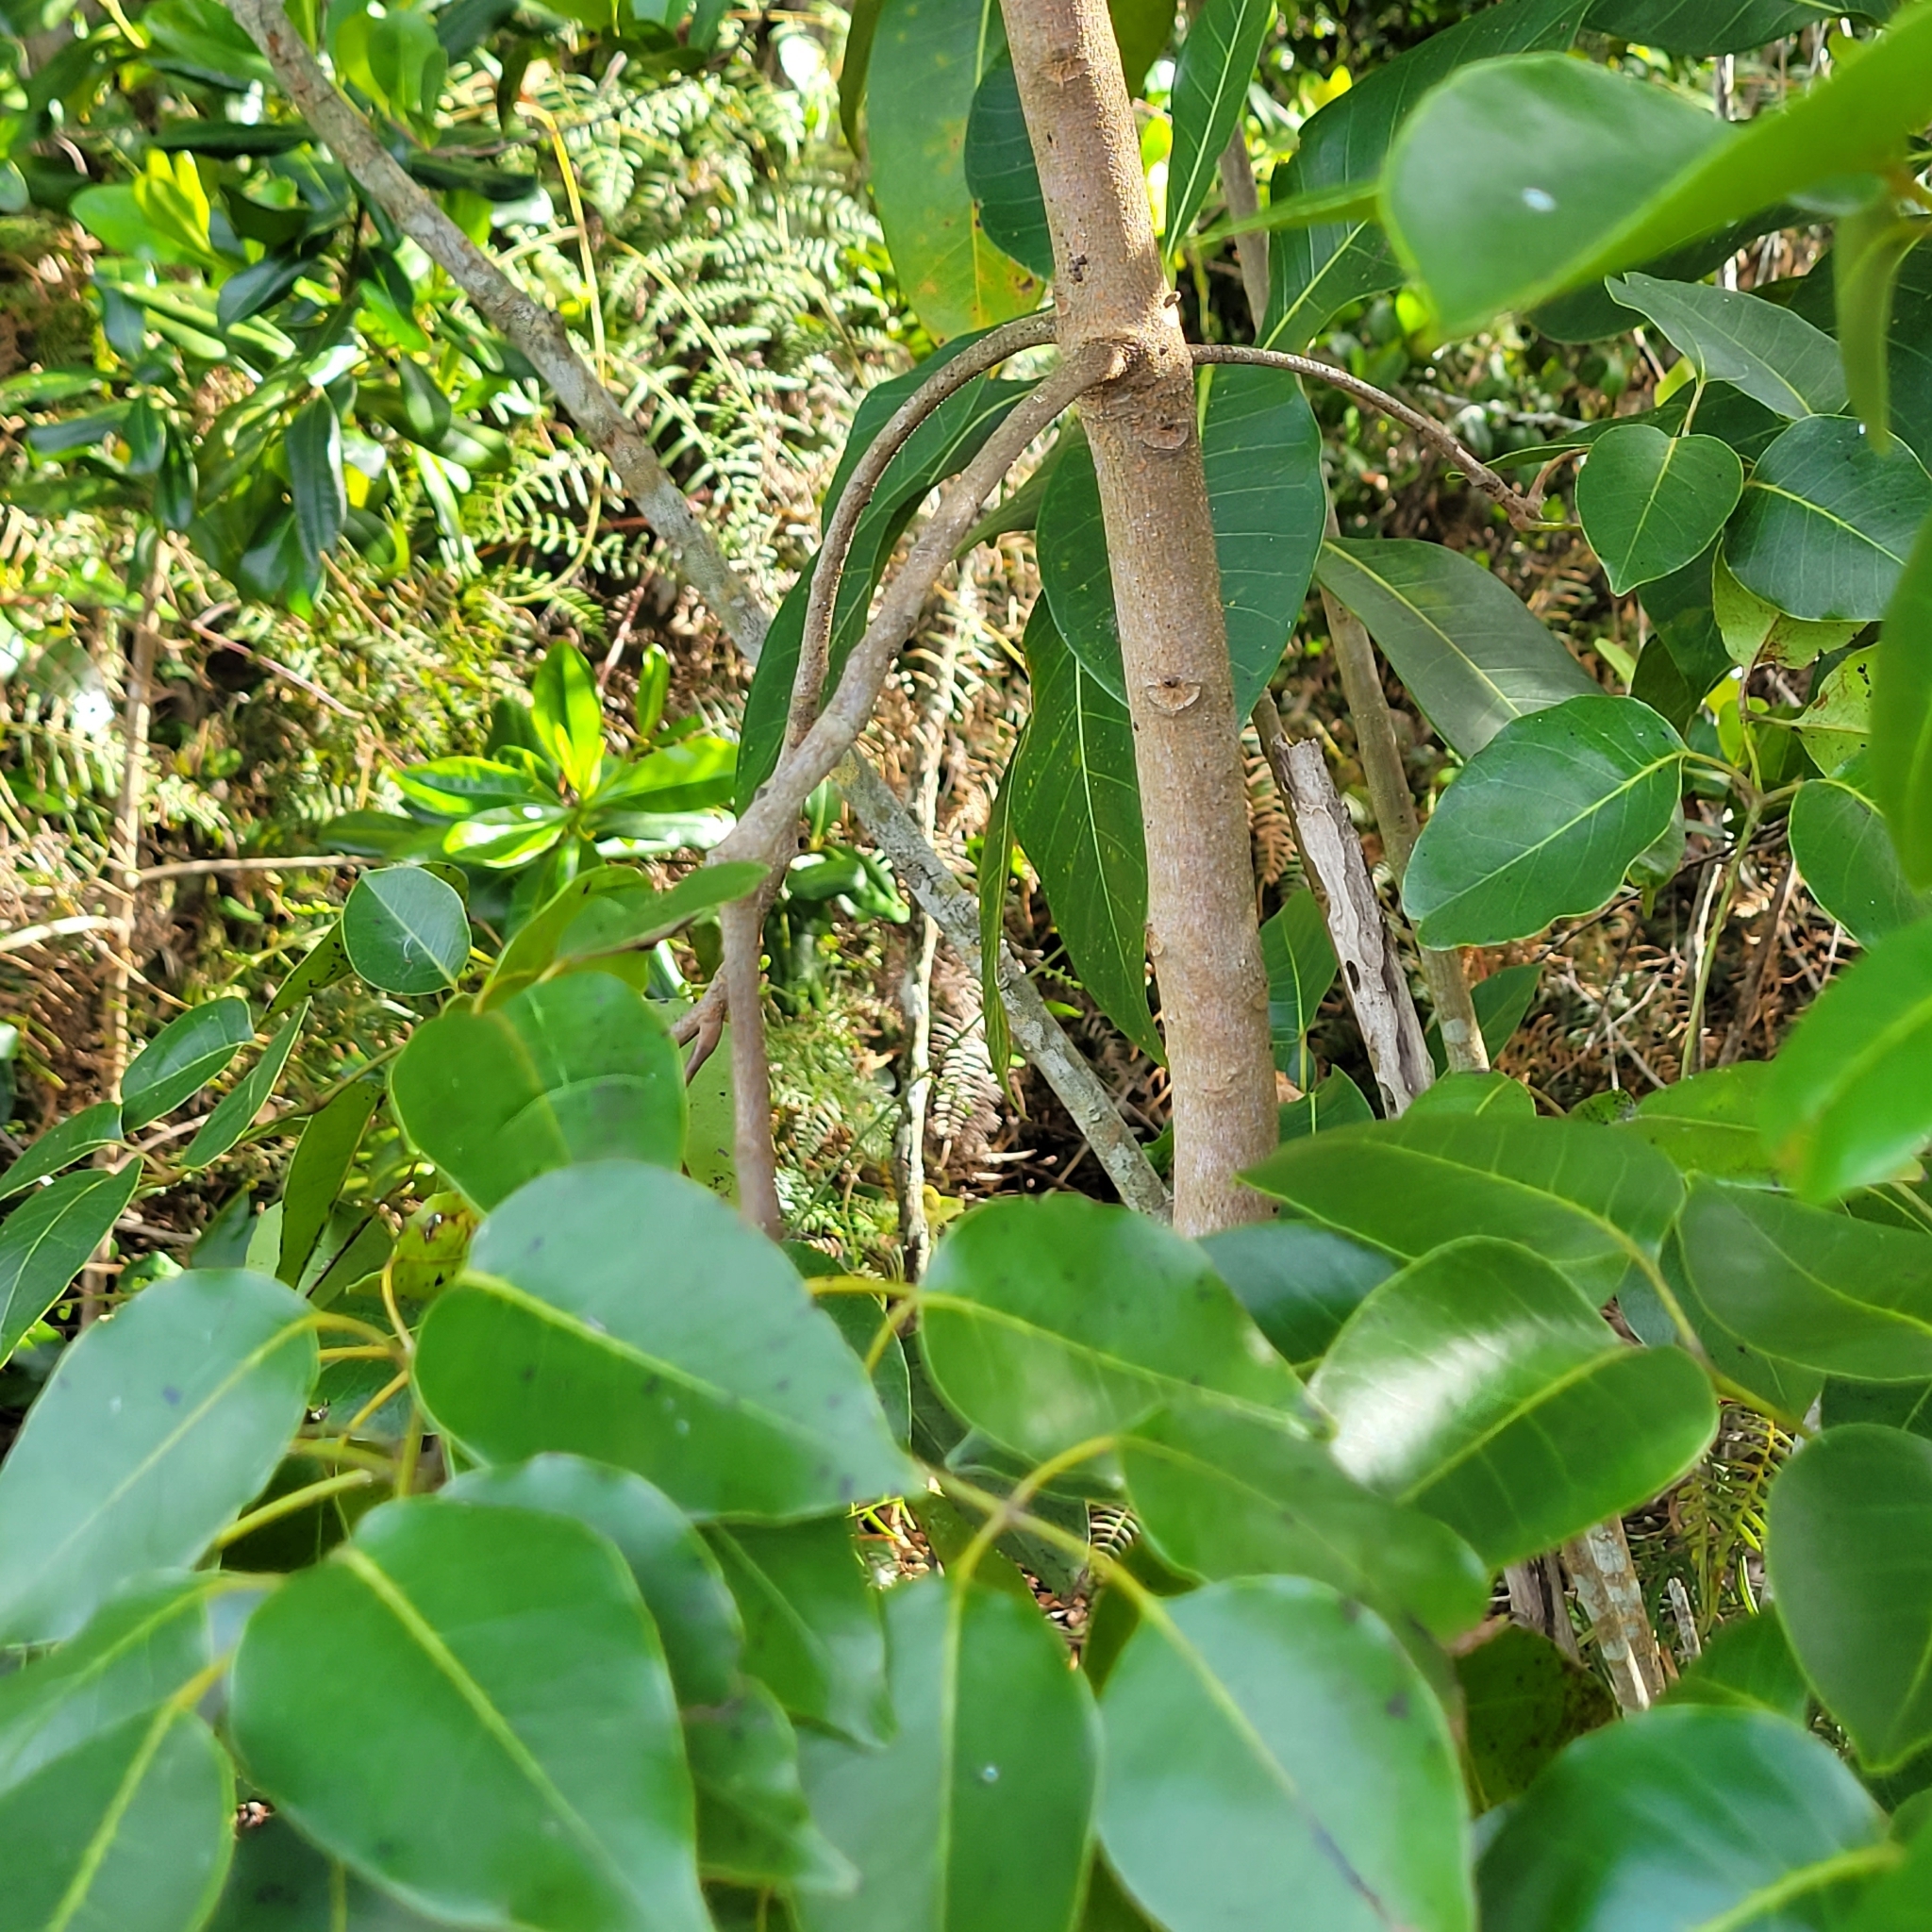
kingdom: Plantae
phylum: Tracheophyta
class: Magnoliopsida
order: Sapindales
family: Anacardiaceae
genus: Metopium
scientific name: Metopium toxiferum
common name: Florida poisontree
